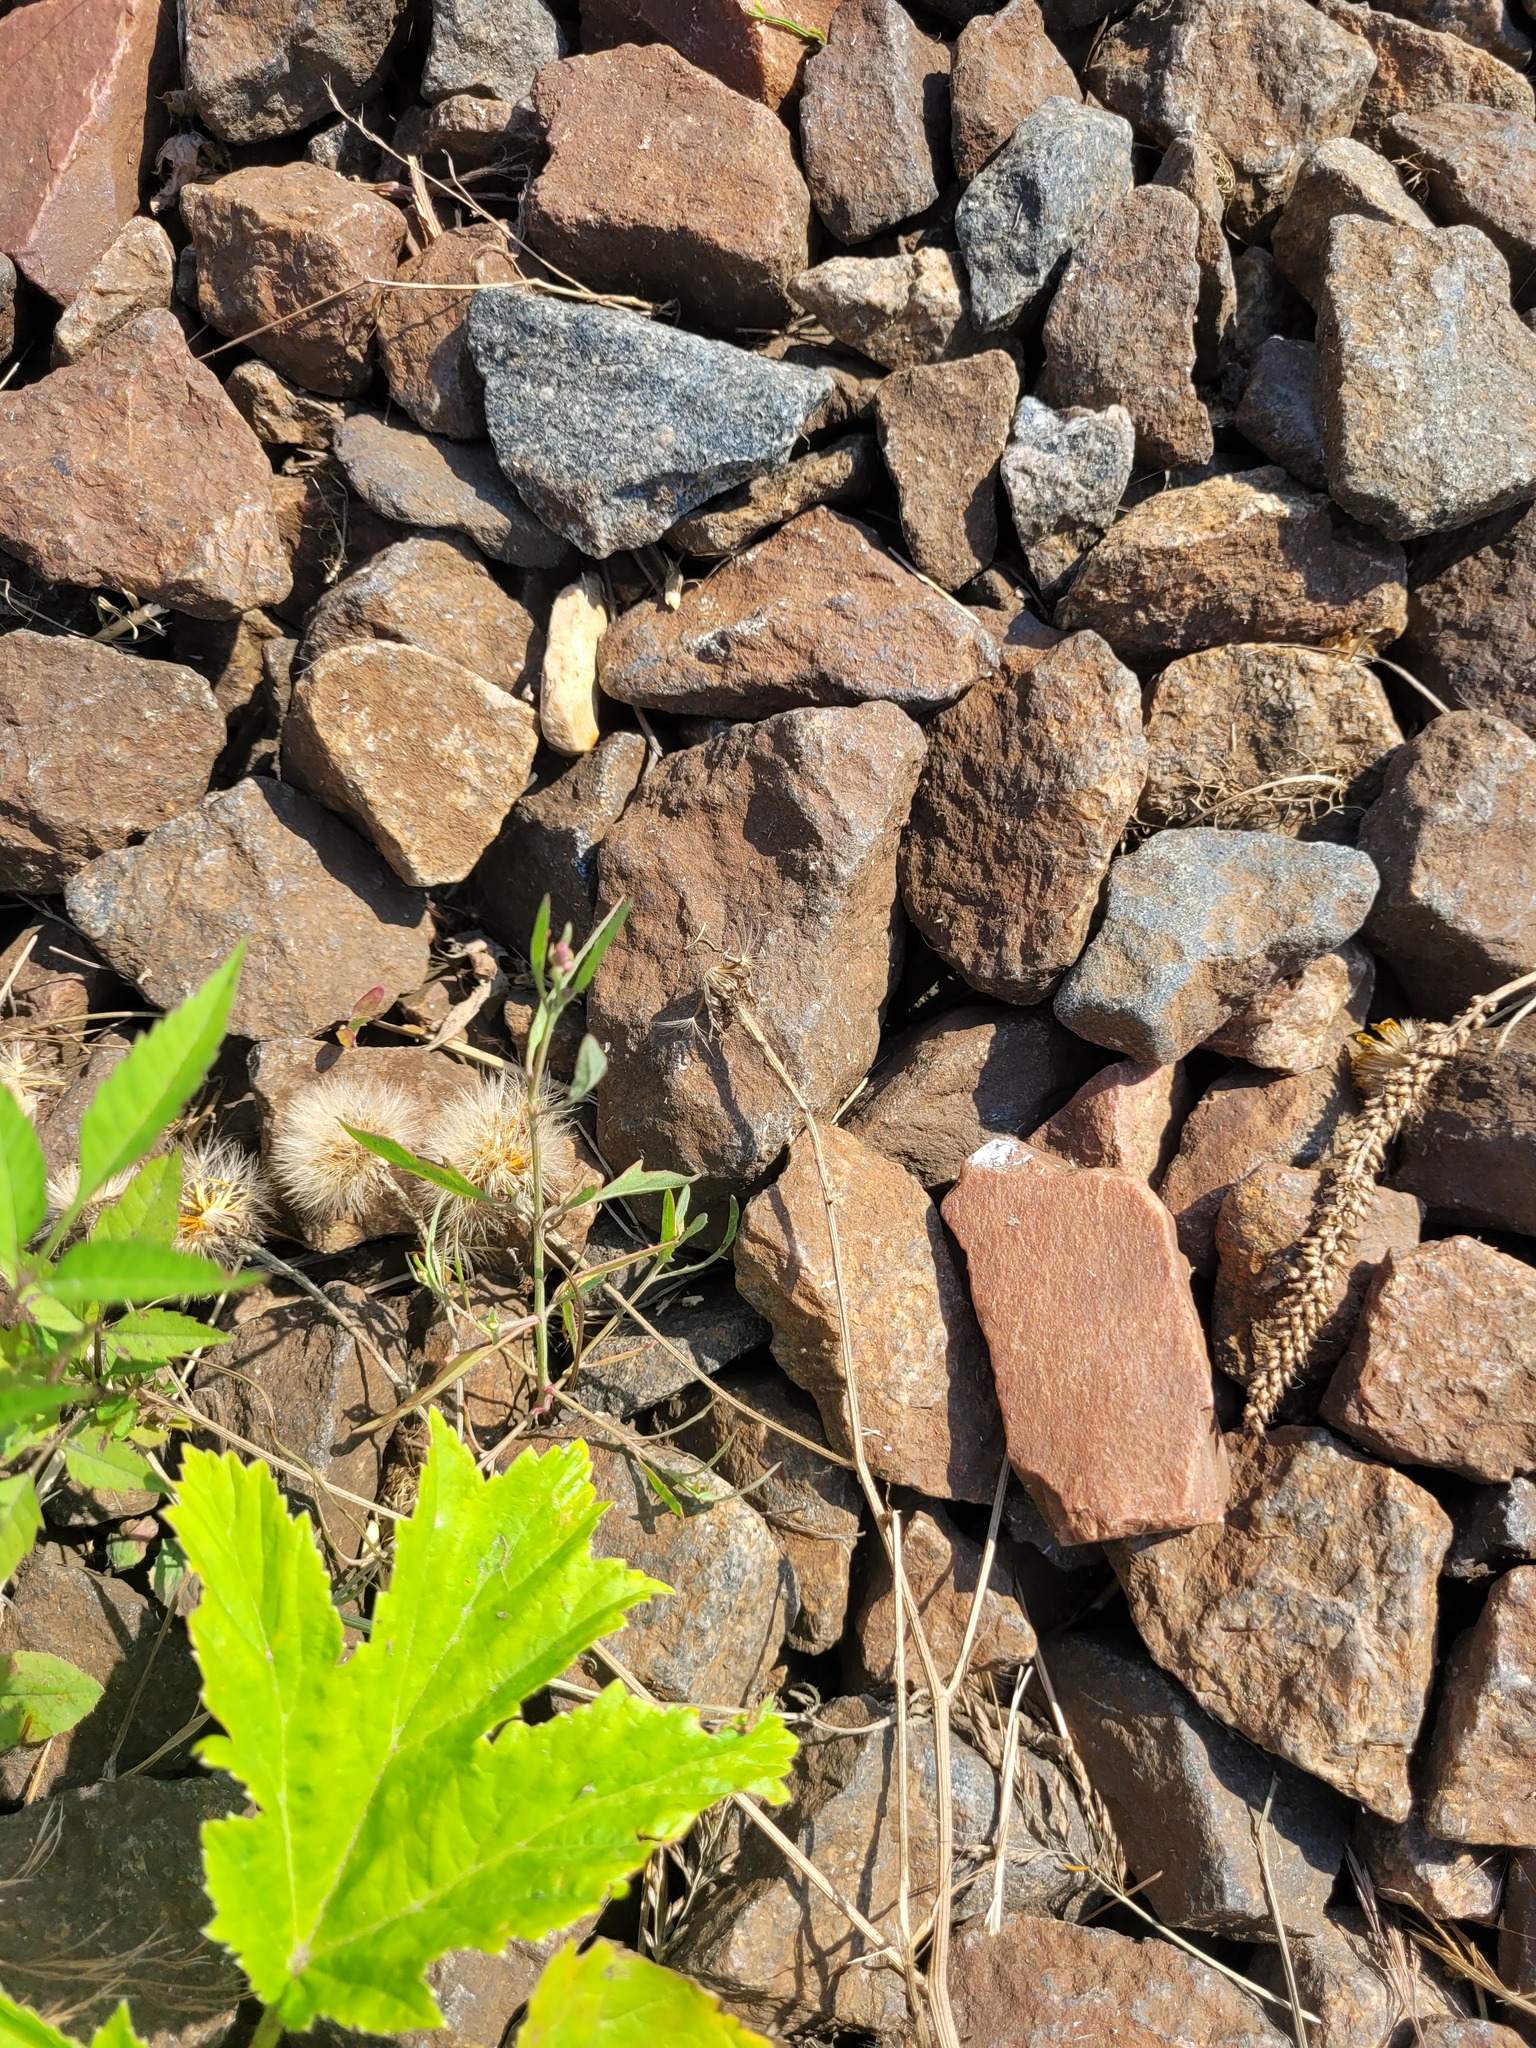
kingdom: Plantae
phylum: Tracheophyta
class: Magnoliopsida
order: Caryophyllales
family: Amaranthaceae
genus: Atriplex
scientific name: Atriplex patula
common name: Common orache
